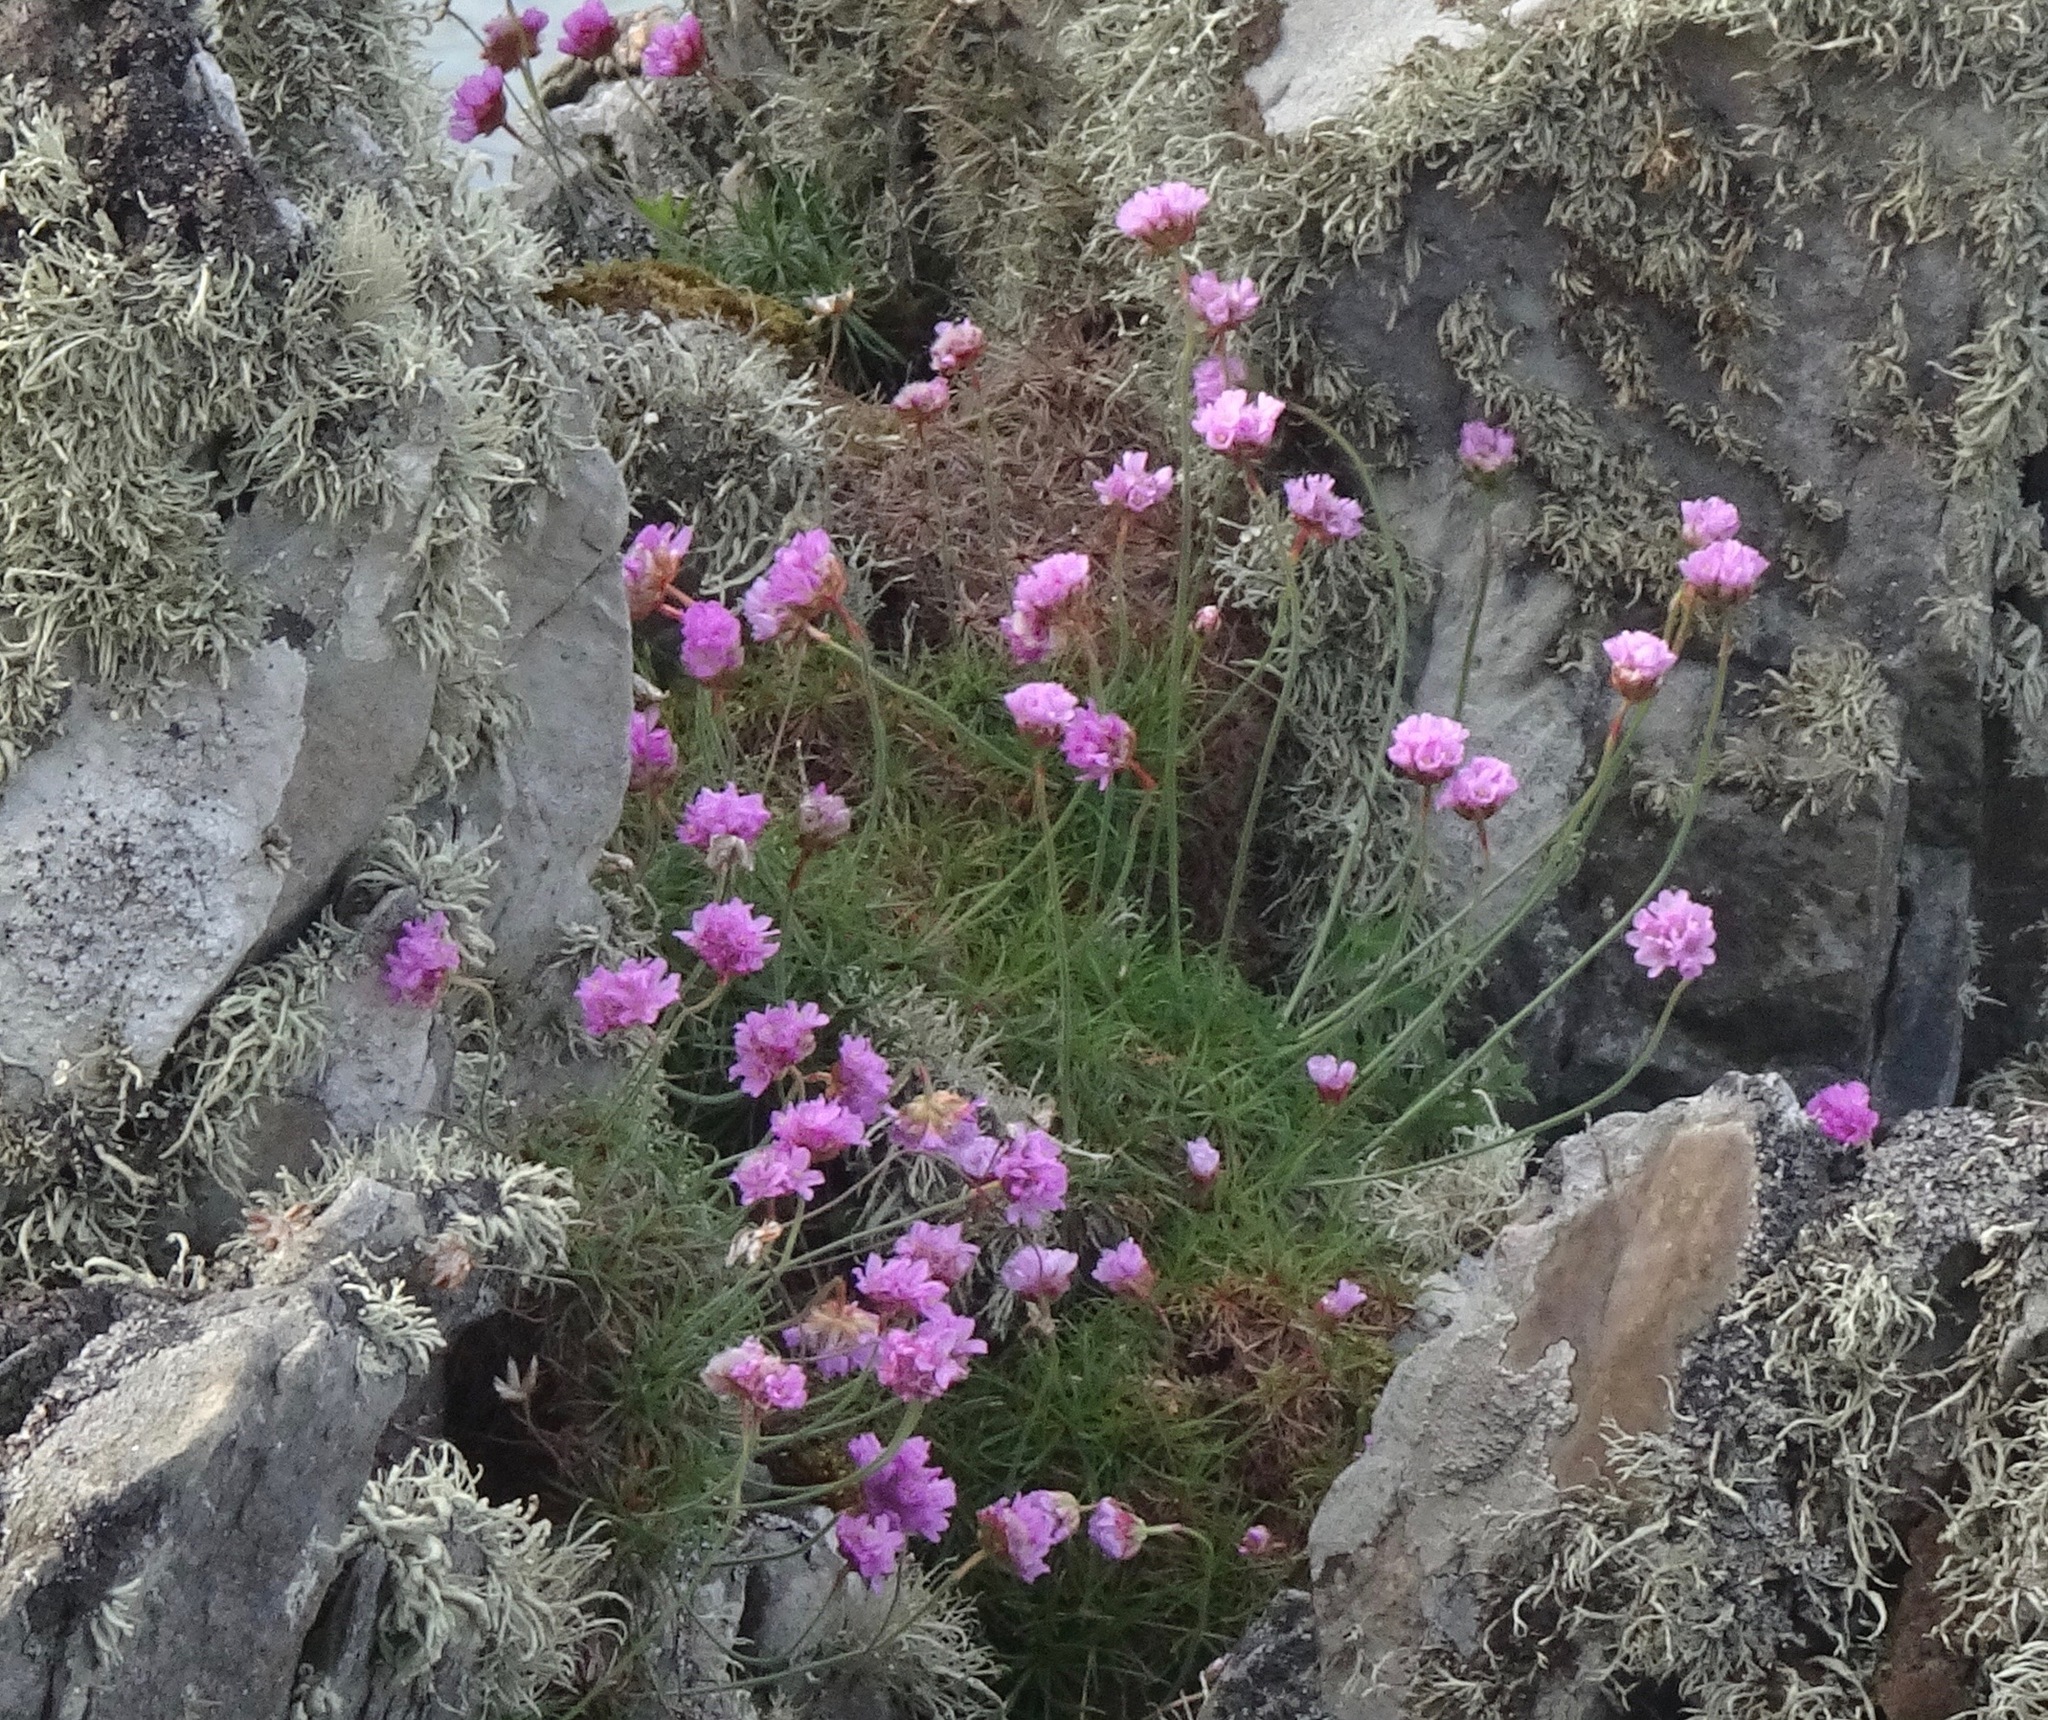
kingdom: Plantae
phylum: Tracheophyta
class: Magnoliopsida
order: Caryophyllales
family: Plumbaginaceae
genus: Armeria
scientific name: Armeria maritima
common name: Thrift
